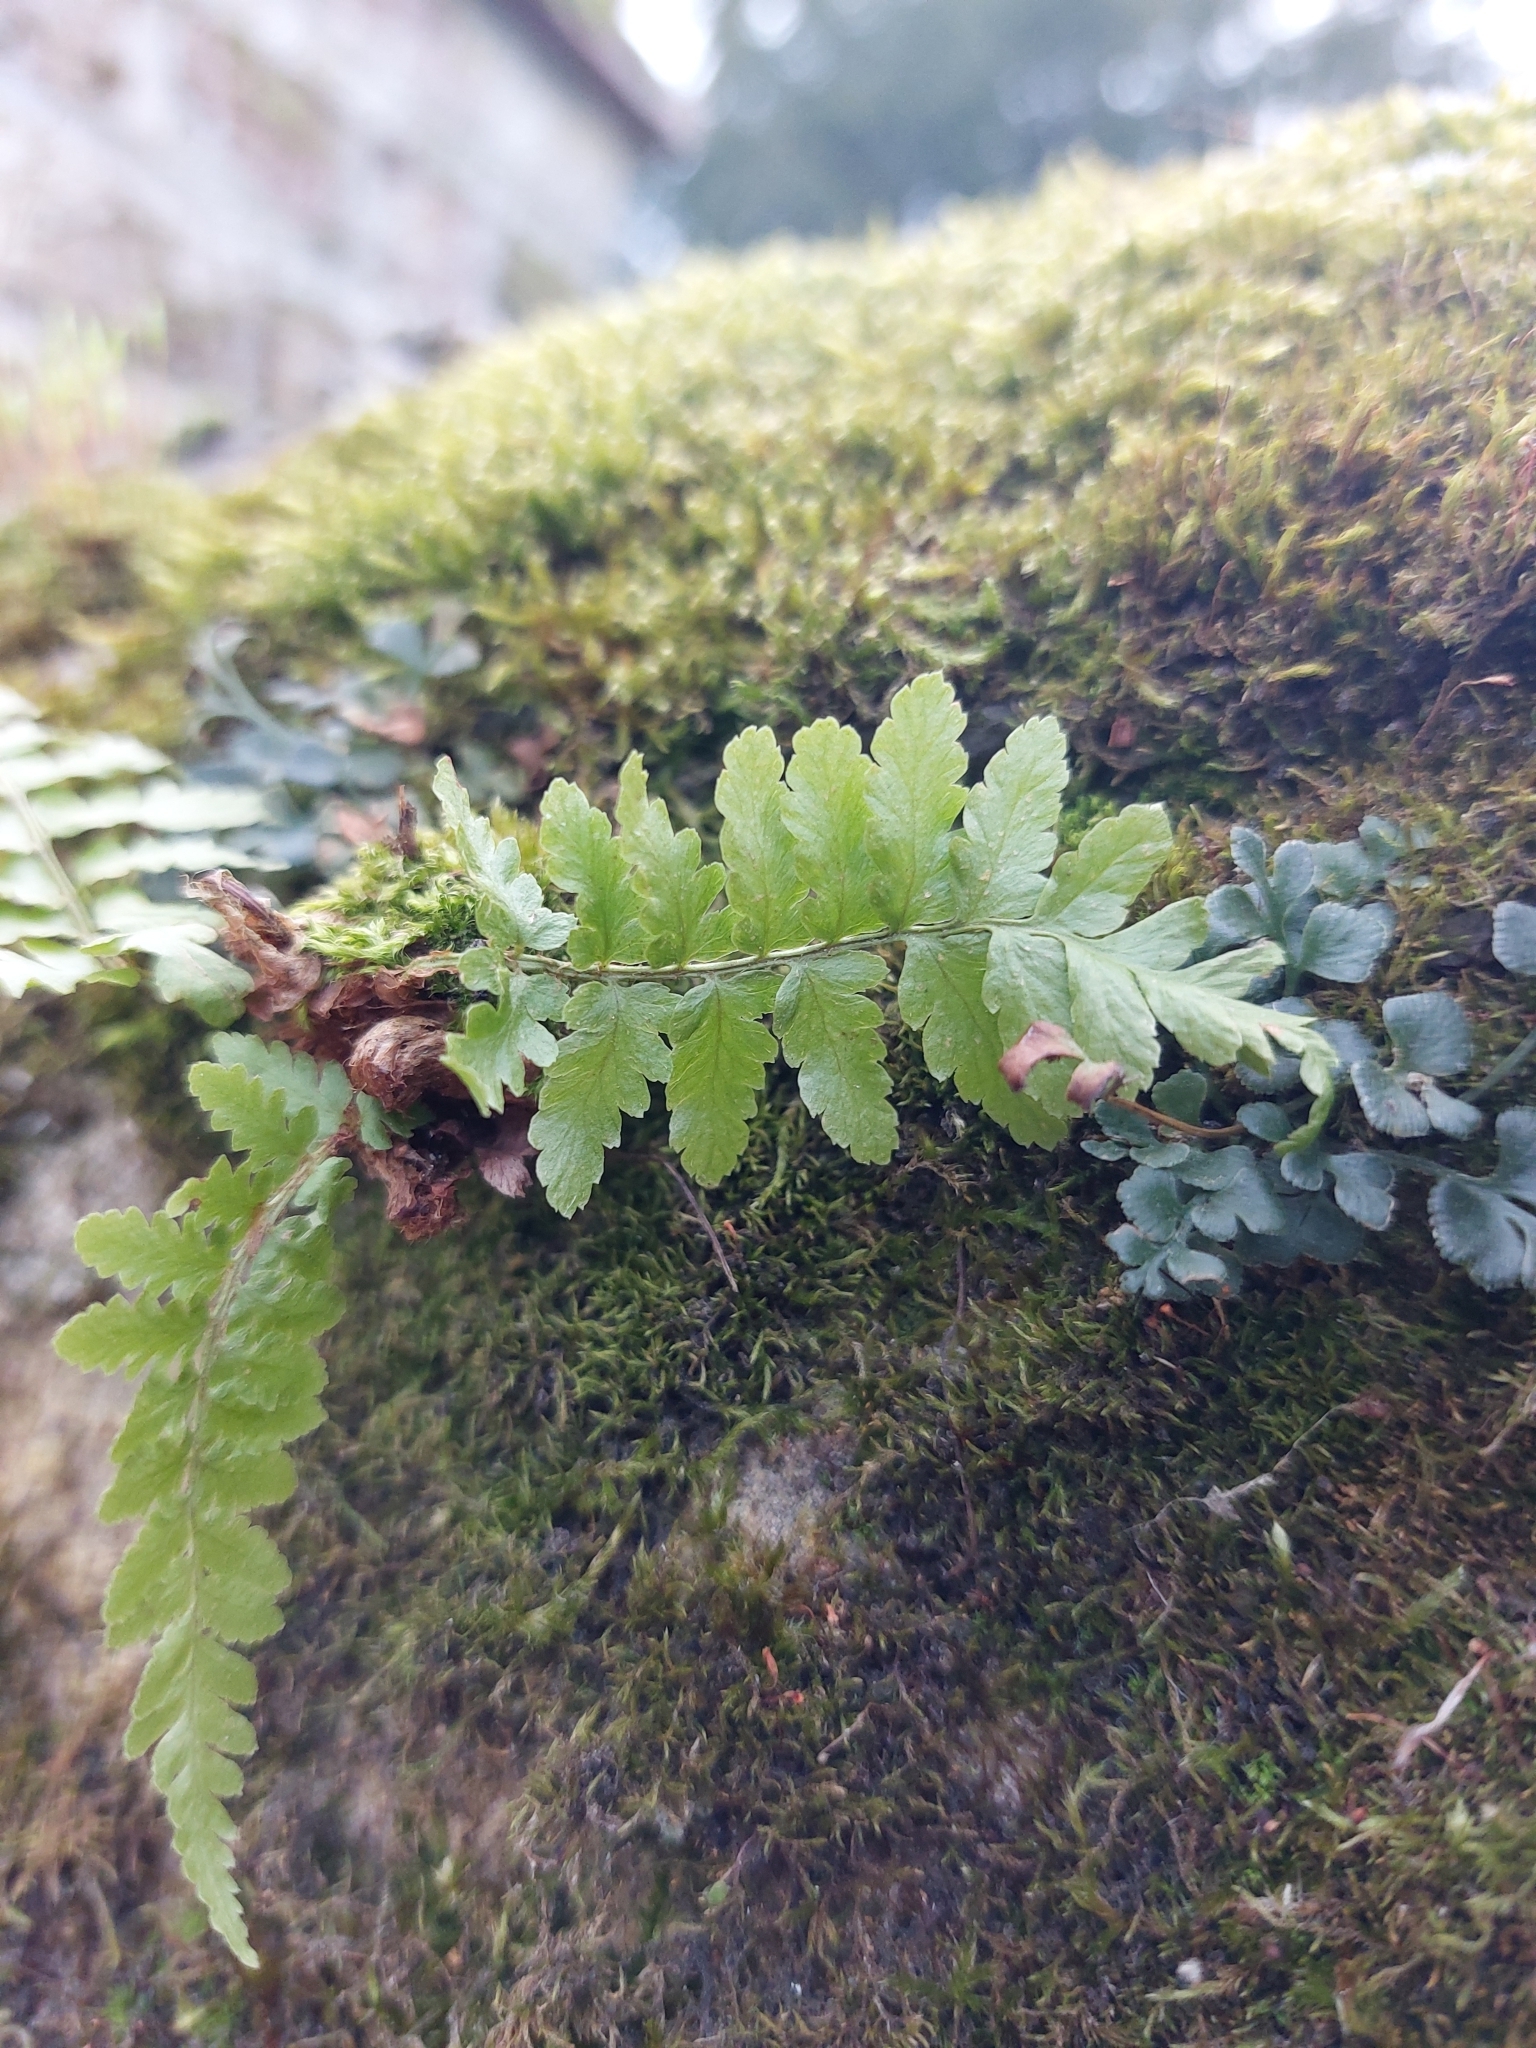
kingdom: Plantae
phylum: Tracheophyta
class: Polypodiopsida
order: Polypodiales
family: Dryopteridaceae
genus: Dryopteris
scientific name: Dryopteris filix-mas
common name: Male fern
